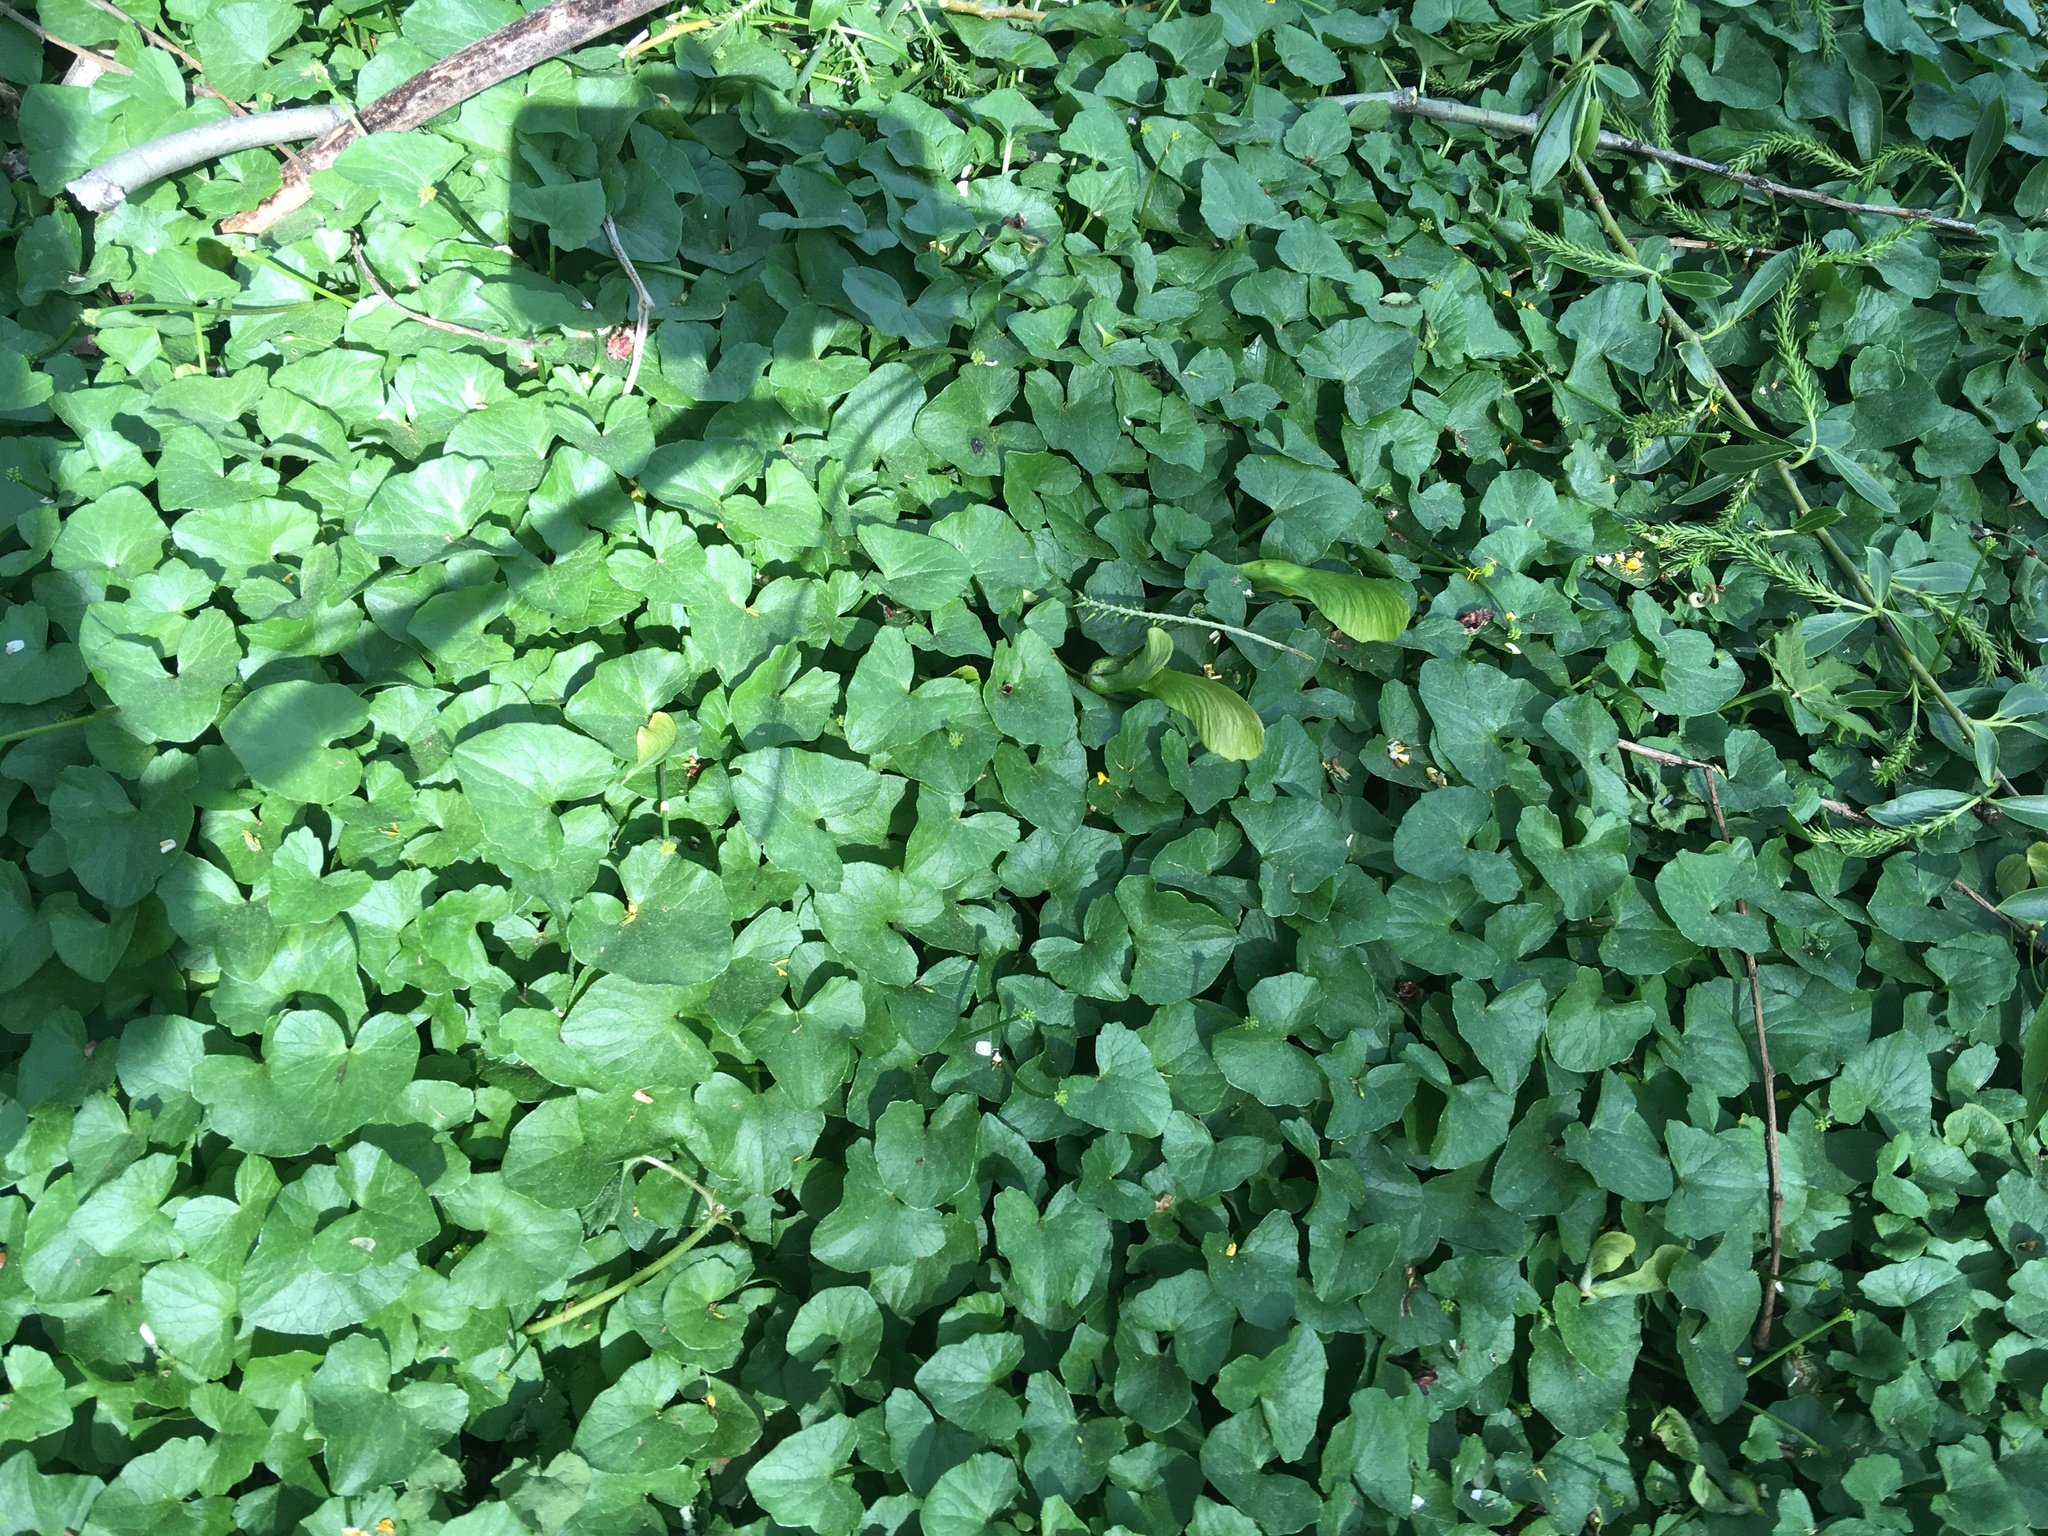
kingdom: Plantae
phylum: Tracheophyta
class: Magnoliopsida
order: Ranunculales
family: Ranunculaceae
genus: Ficaria
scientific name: Ficaria verna
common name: Lesser celandine
